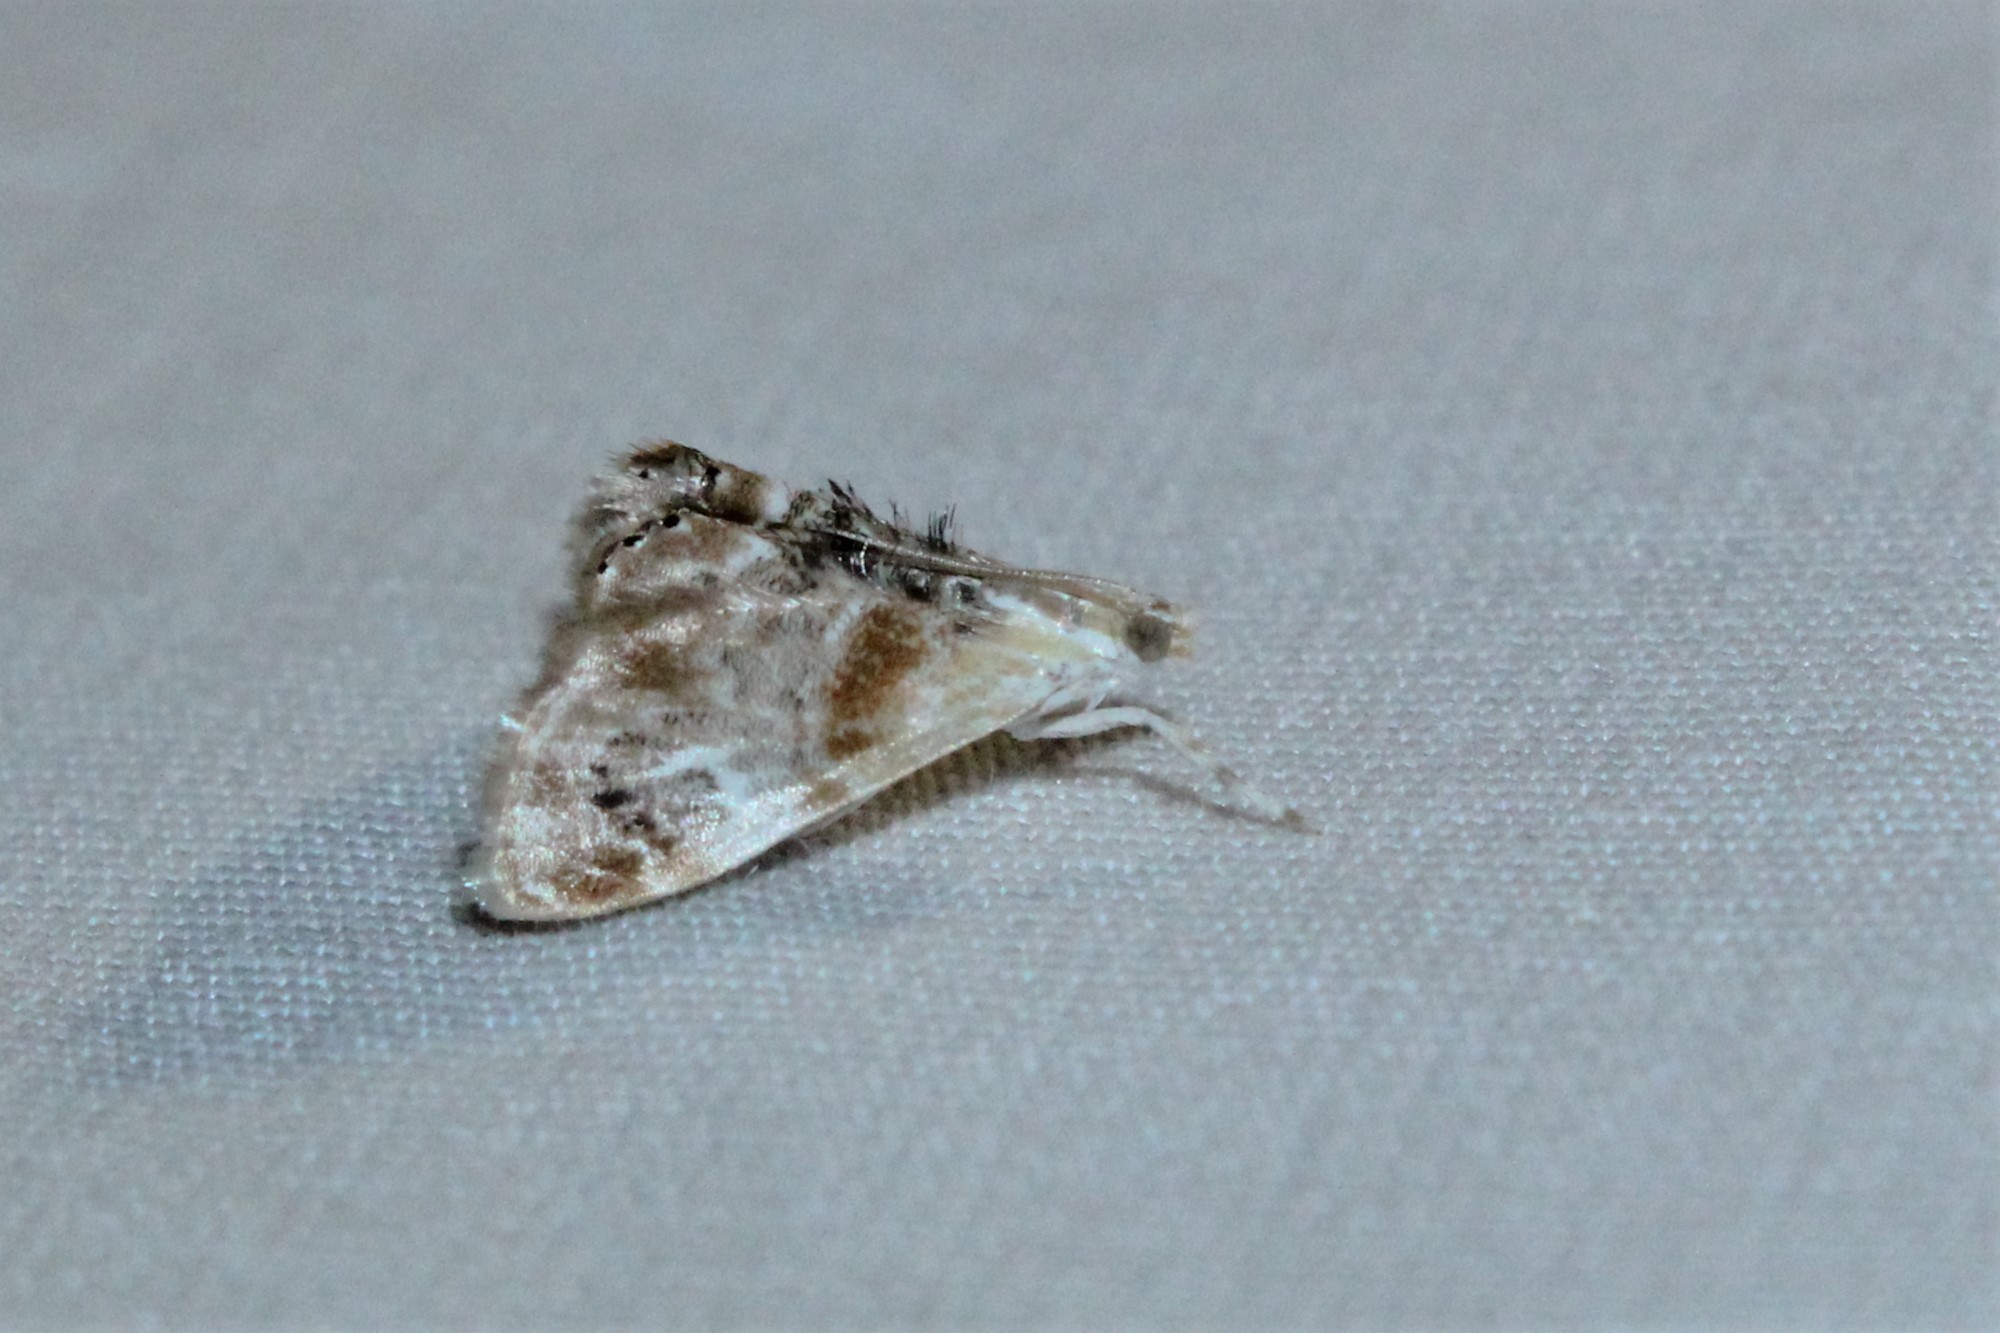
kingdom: Animalia
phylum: Arthropoda
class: Insecta
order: Lepidoptera
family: Crambidae
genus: Dicymolomia
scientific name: Dicymolomia julianalis
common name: Julia's dicymolomia moth
